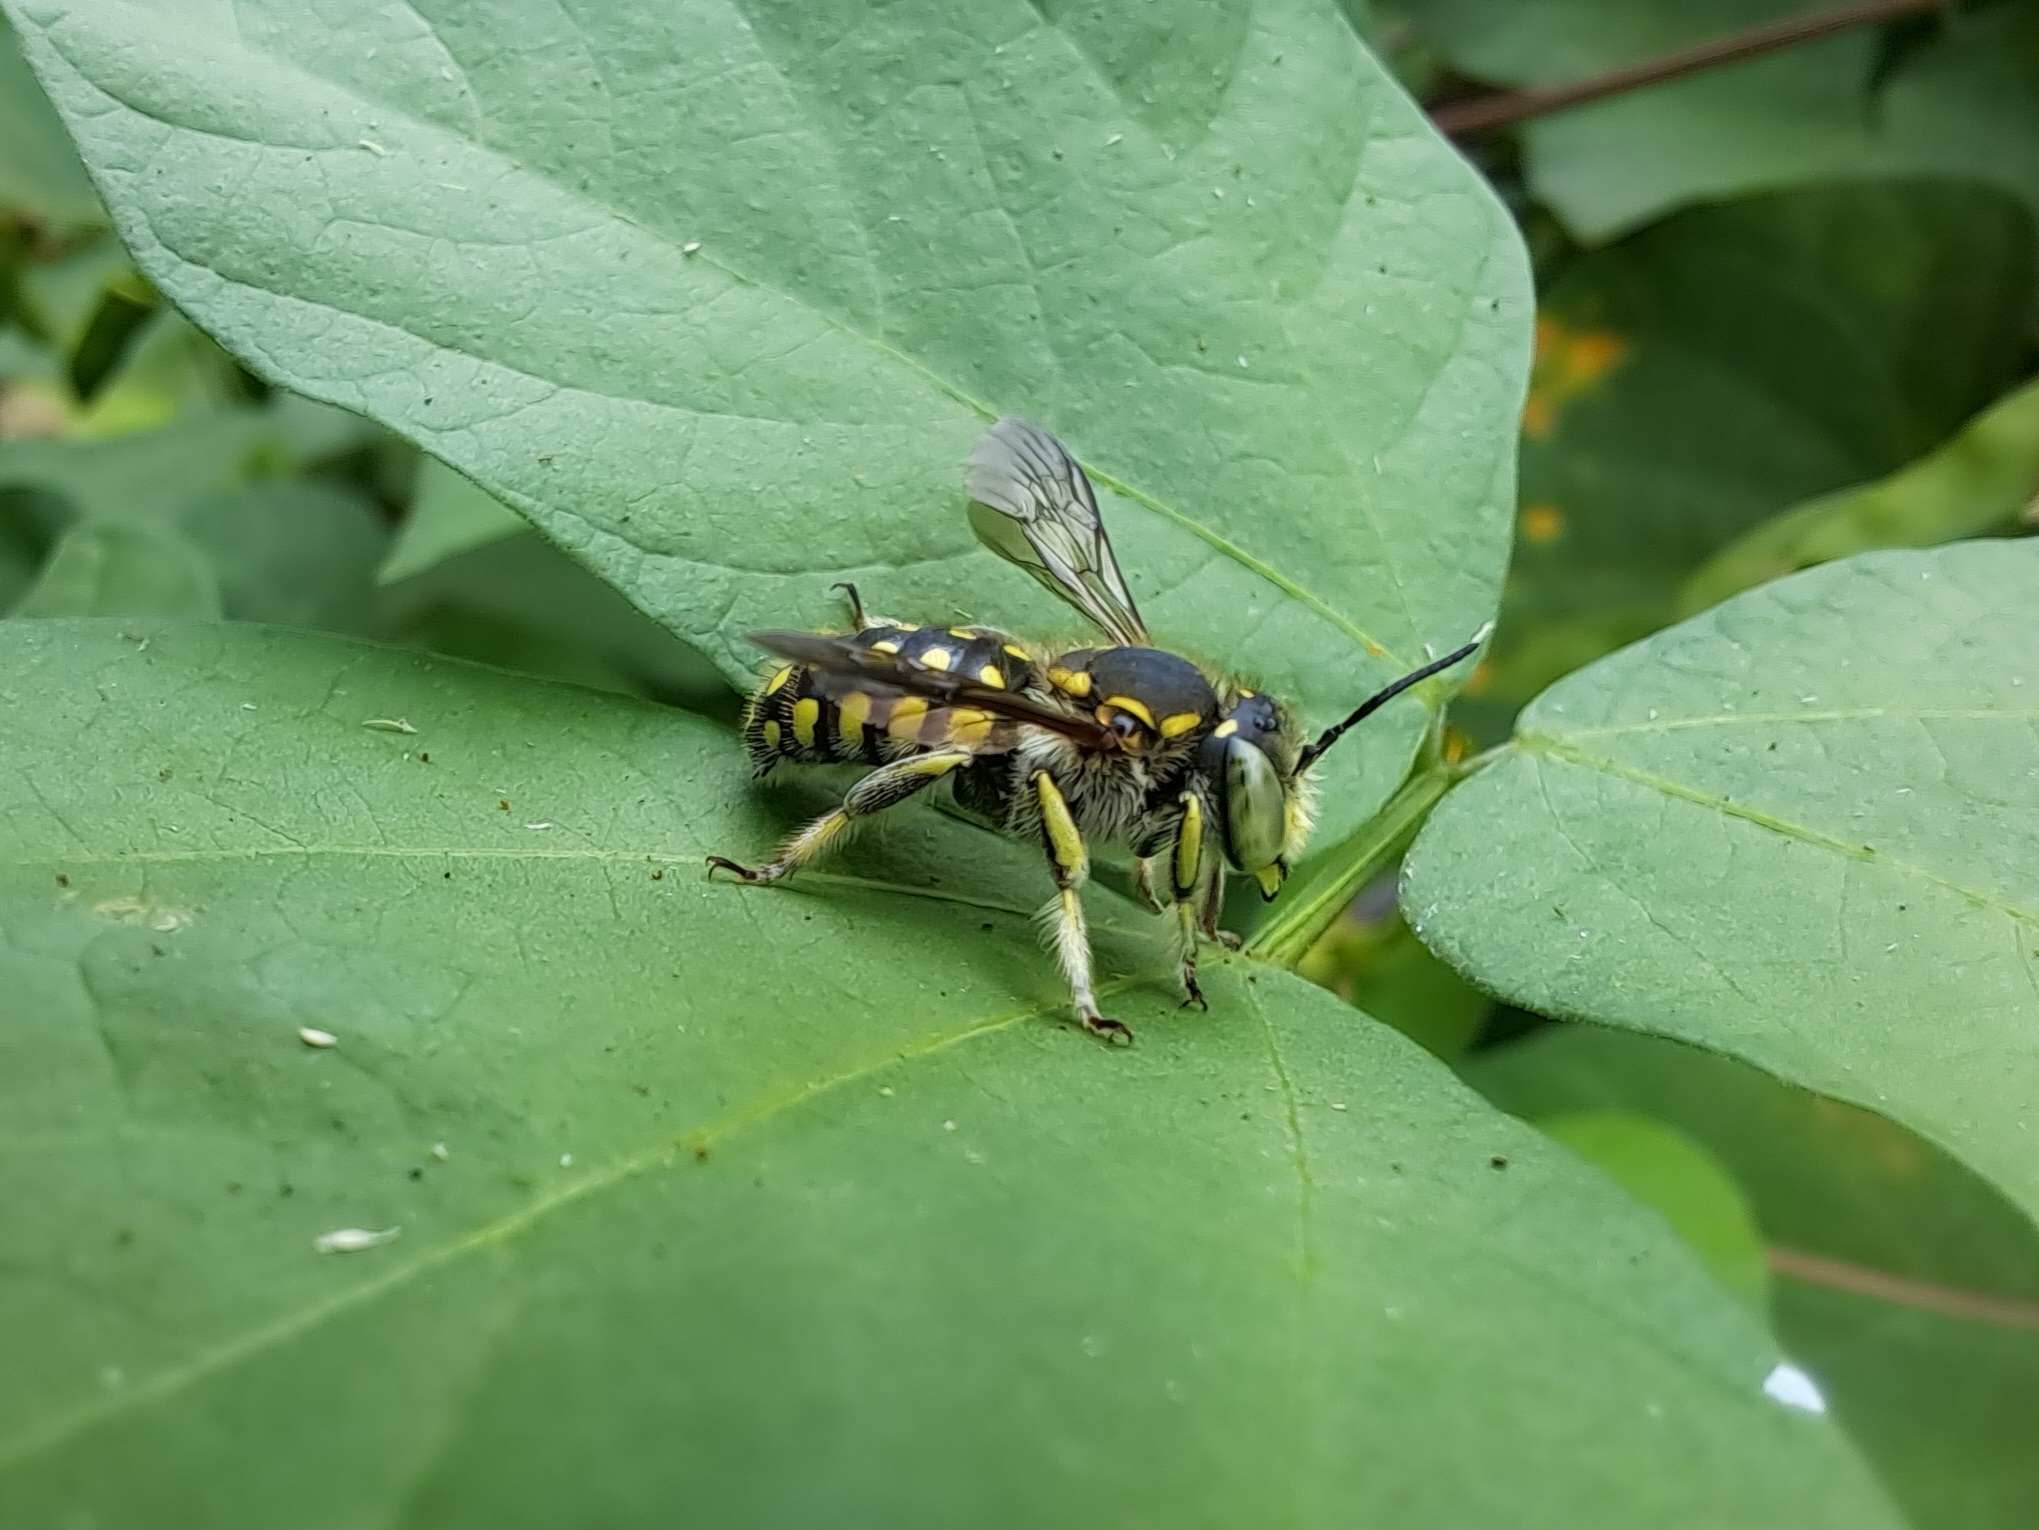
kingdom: Animalia
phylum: Arthropoda
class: Insecta
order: Hymenoptera
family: Megachilidae
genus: Anthidium
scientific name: Anthidium vigintiduopunctatum
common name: Dwarf bee of floreana
